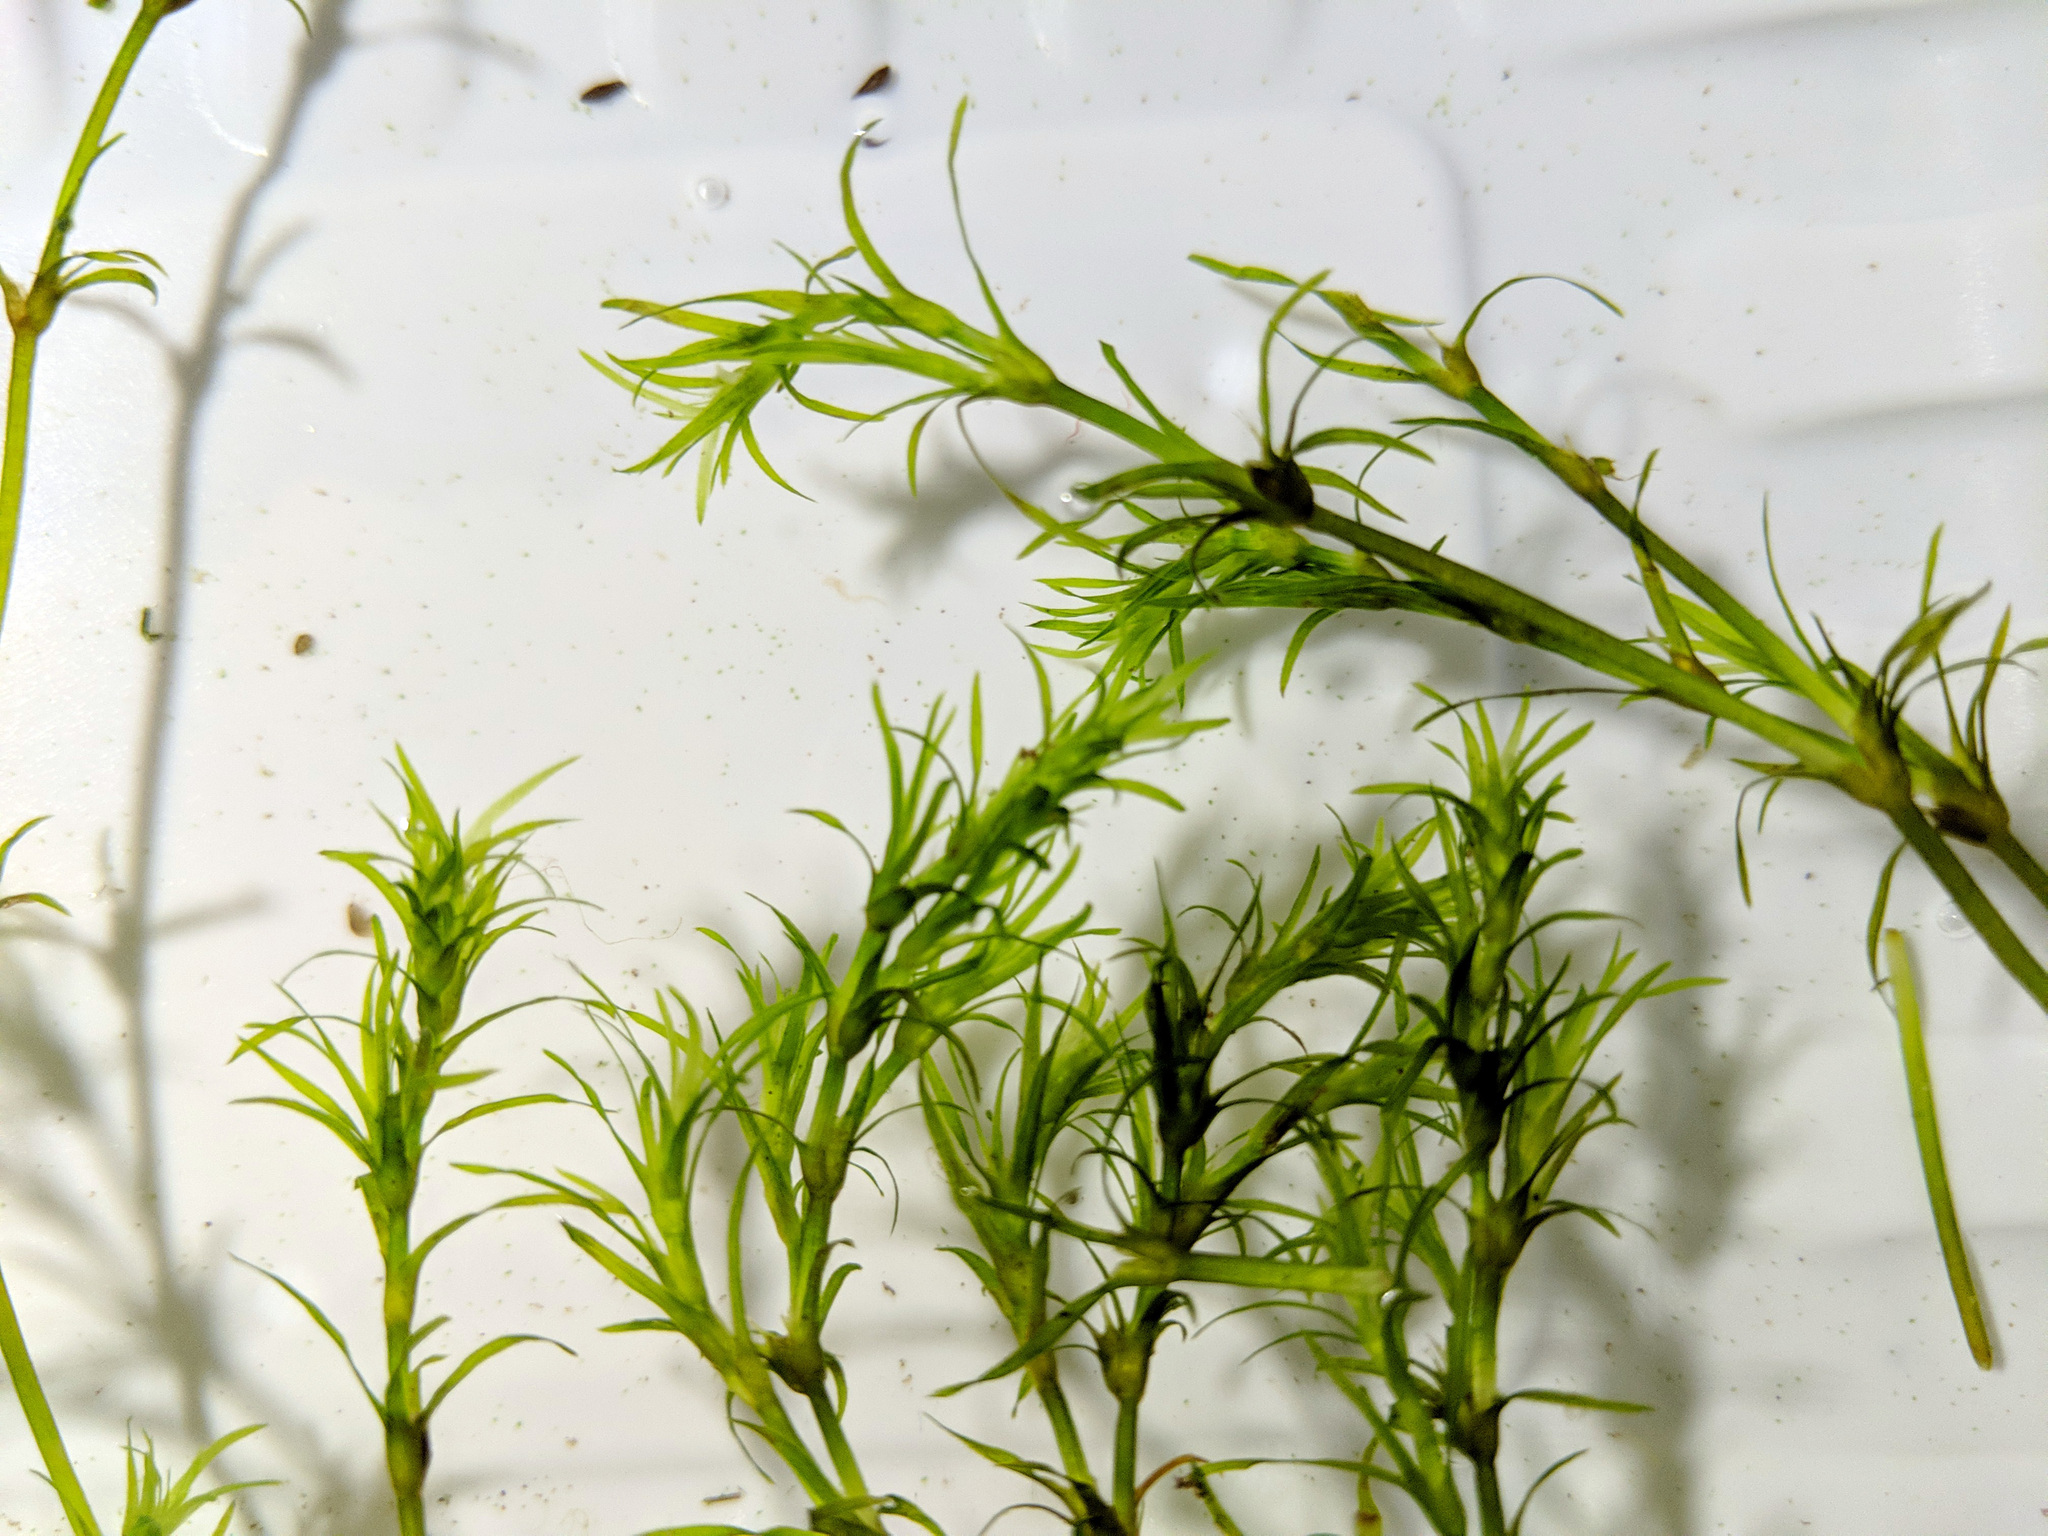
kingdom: Plantae
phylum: Tracheophyta
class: Liliopsida
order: Alismatales
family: Hydrocharitaceae
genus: Najas
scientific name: Najas guadalupensis
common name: Southern naiad
